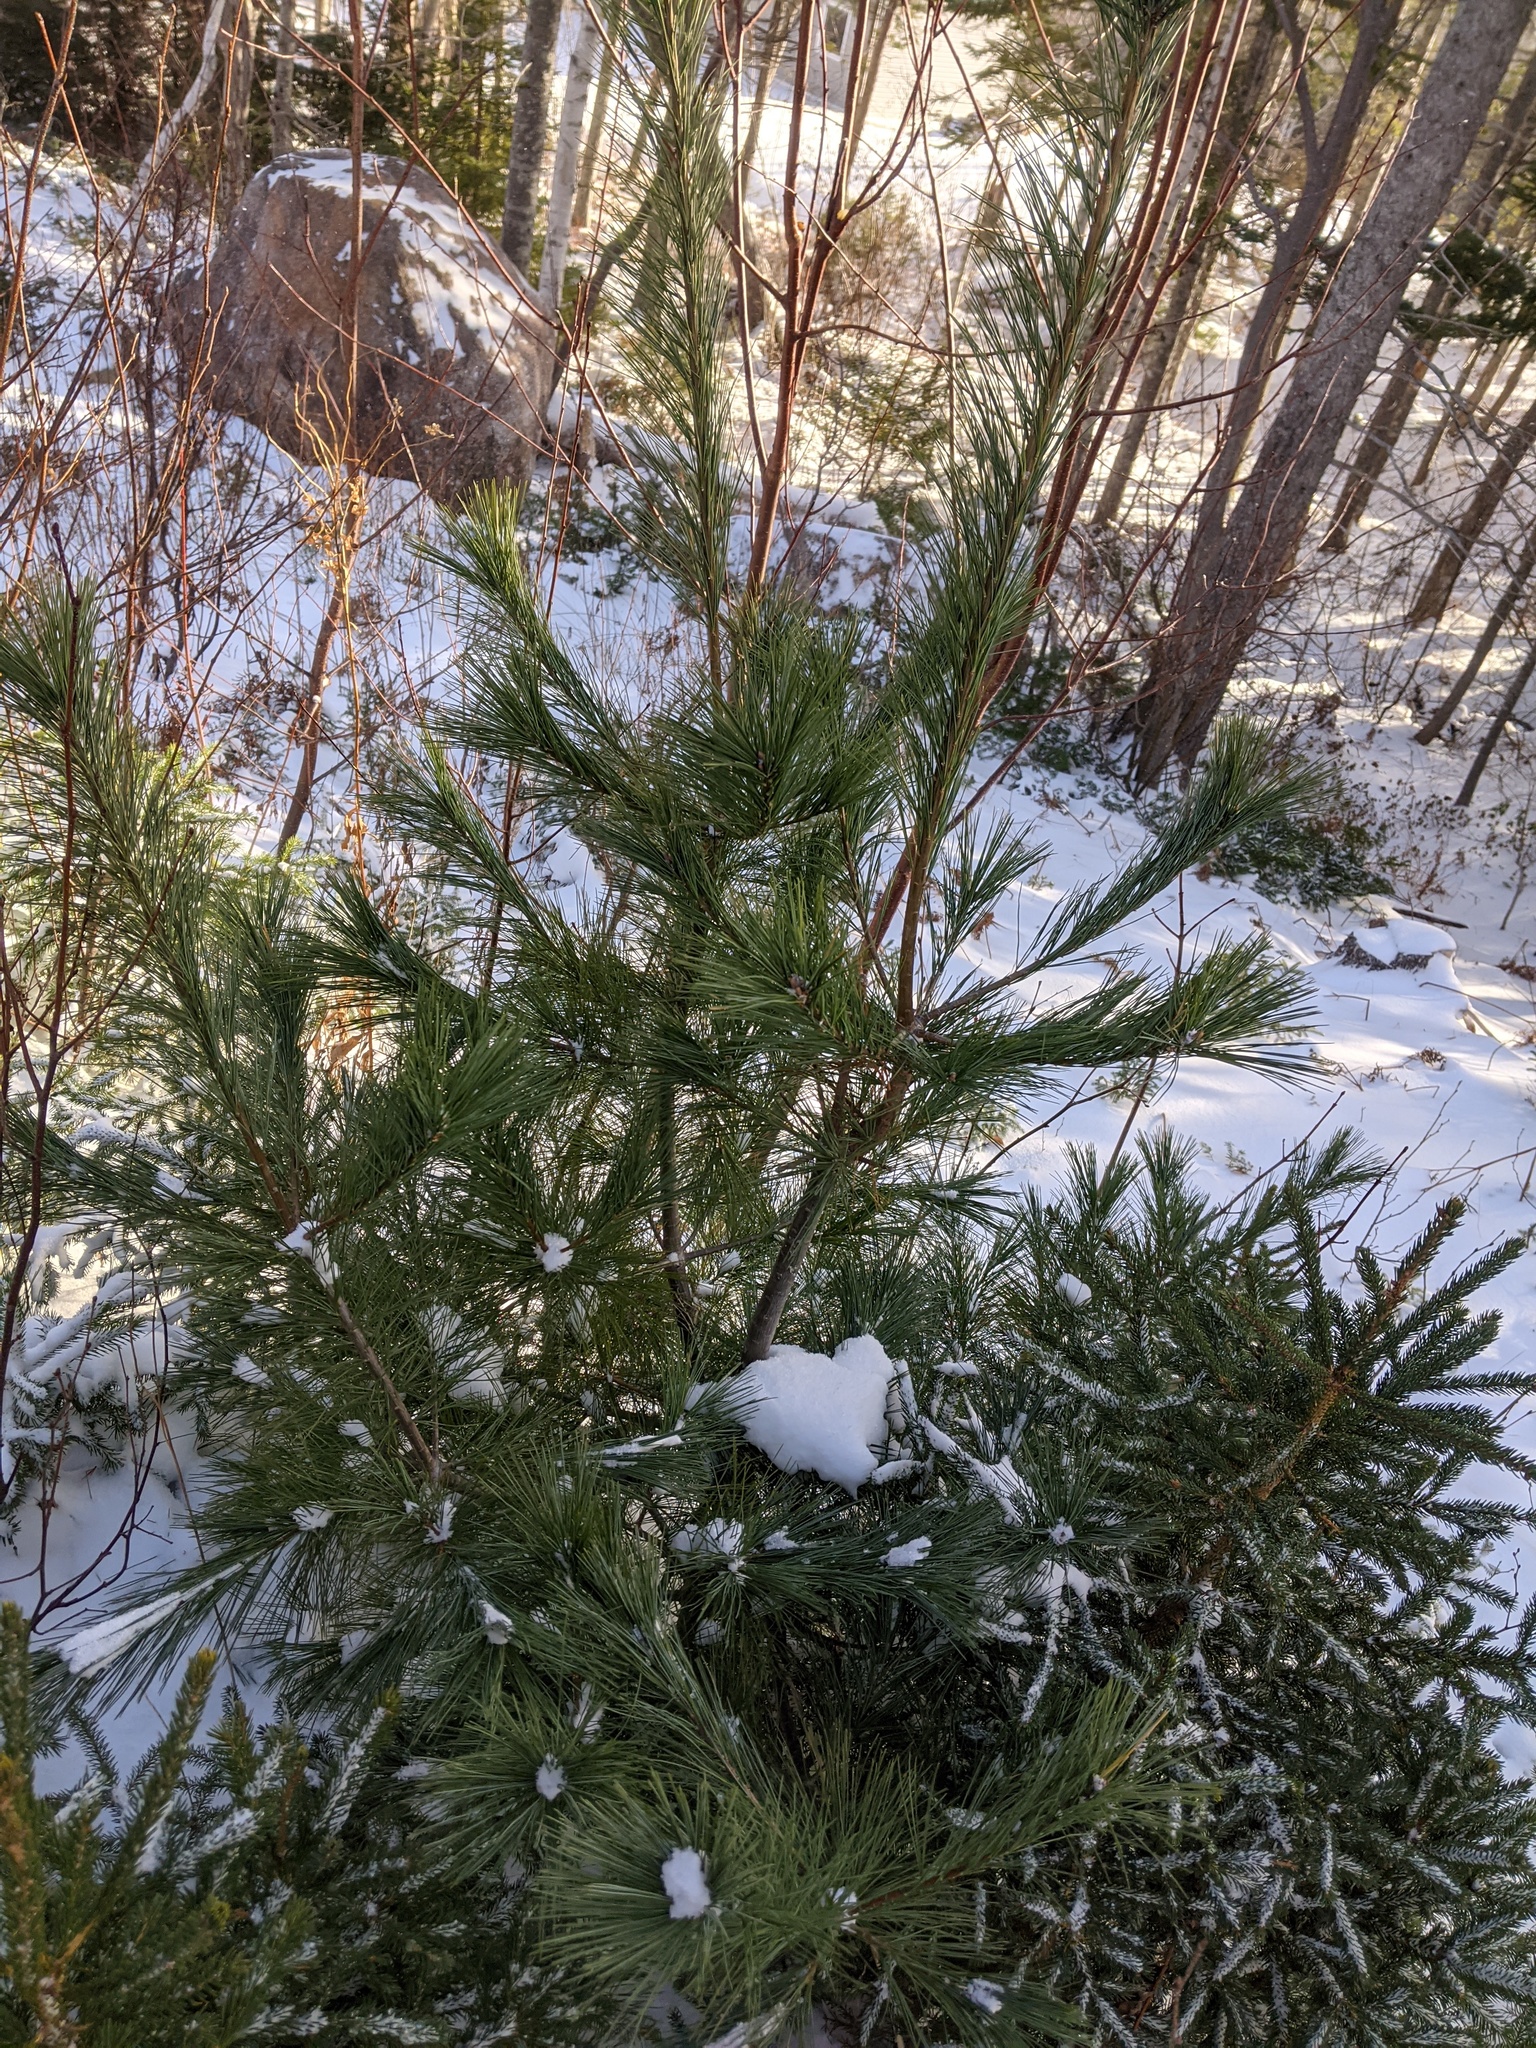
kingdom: Plantae
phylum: Tracheophyta
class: Pinopsida
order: Pinales
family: Pinaceae
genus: Pinus
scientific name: Pinus strobus
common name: Weymouth pine
